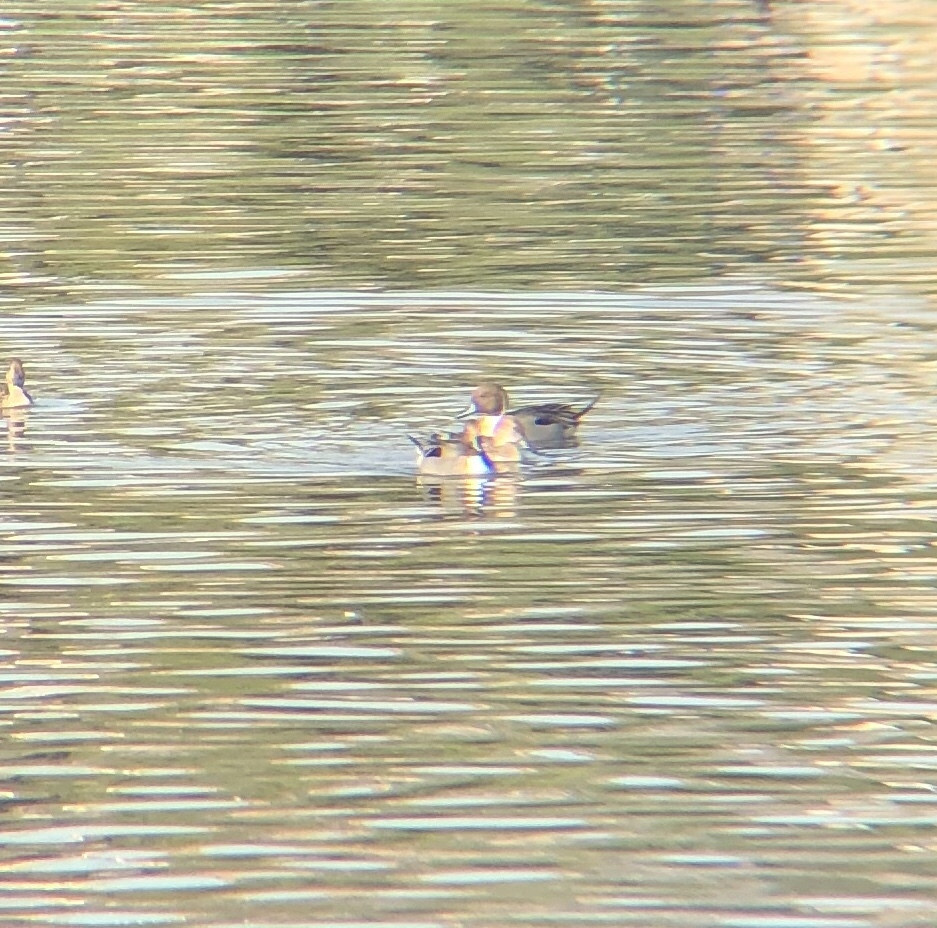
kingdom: Animalia
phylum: Chordata
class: Aves
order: Anseriformes
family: Anatidae
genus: Anas
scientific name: Anas acuta
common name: Northern pintail
